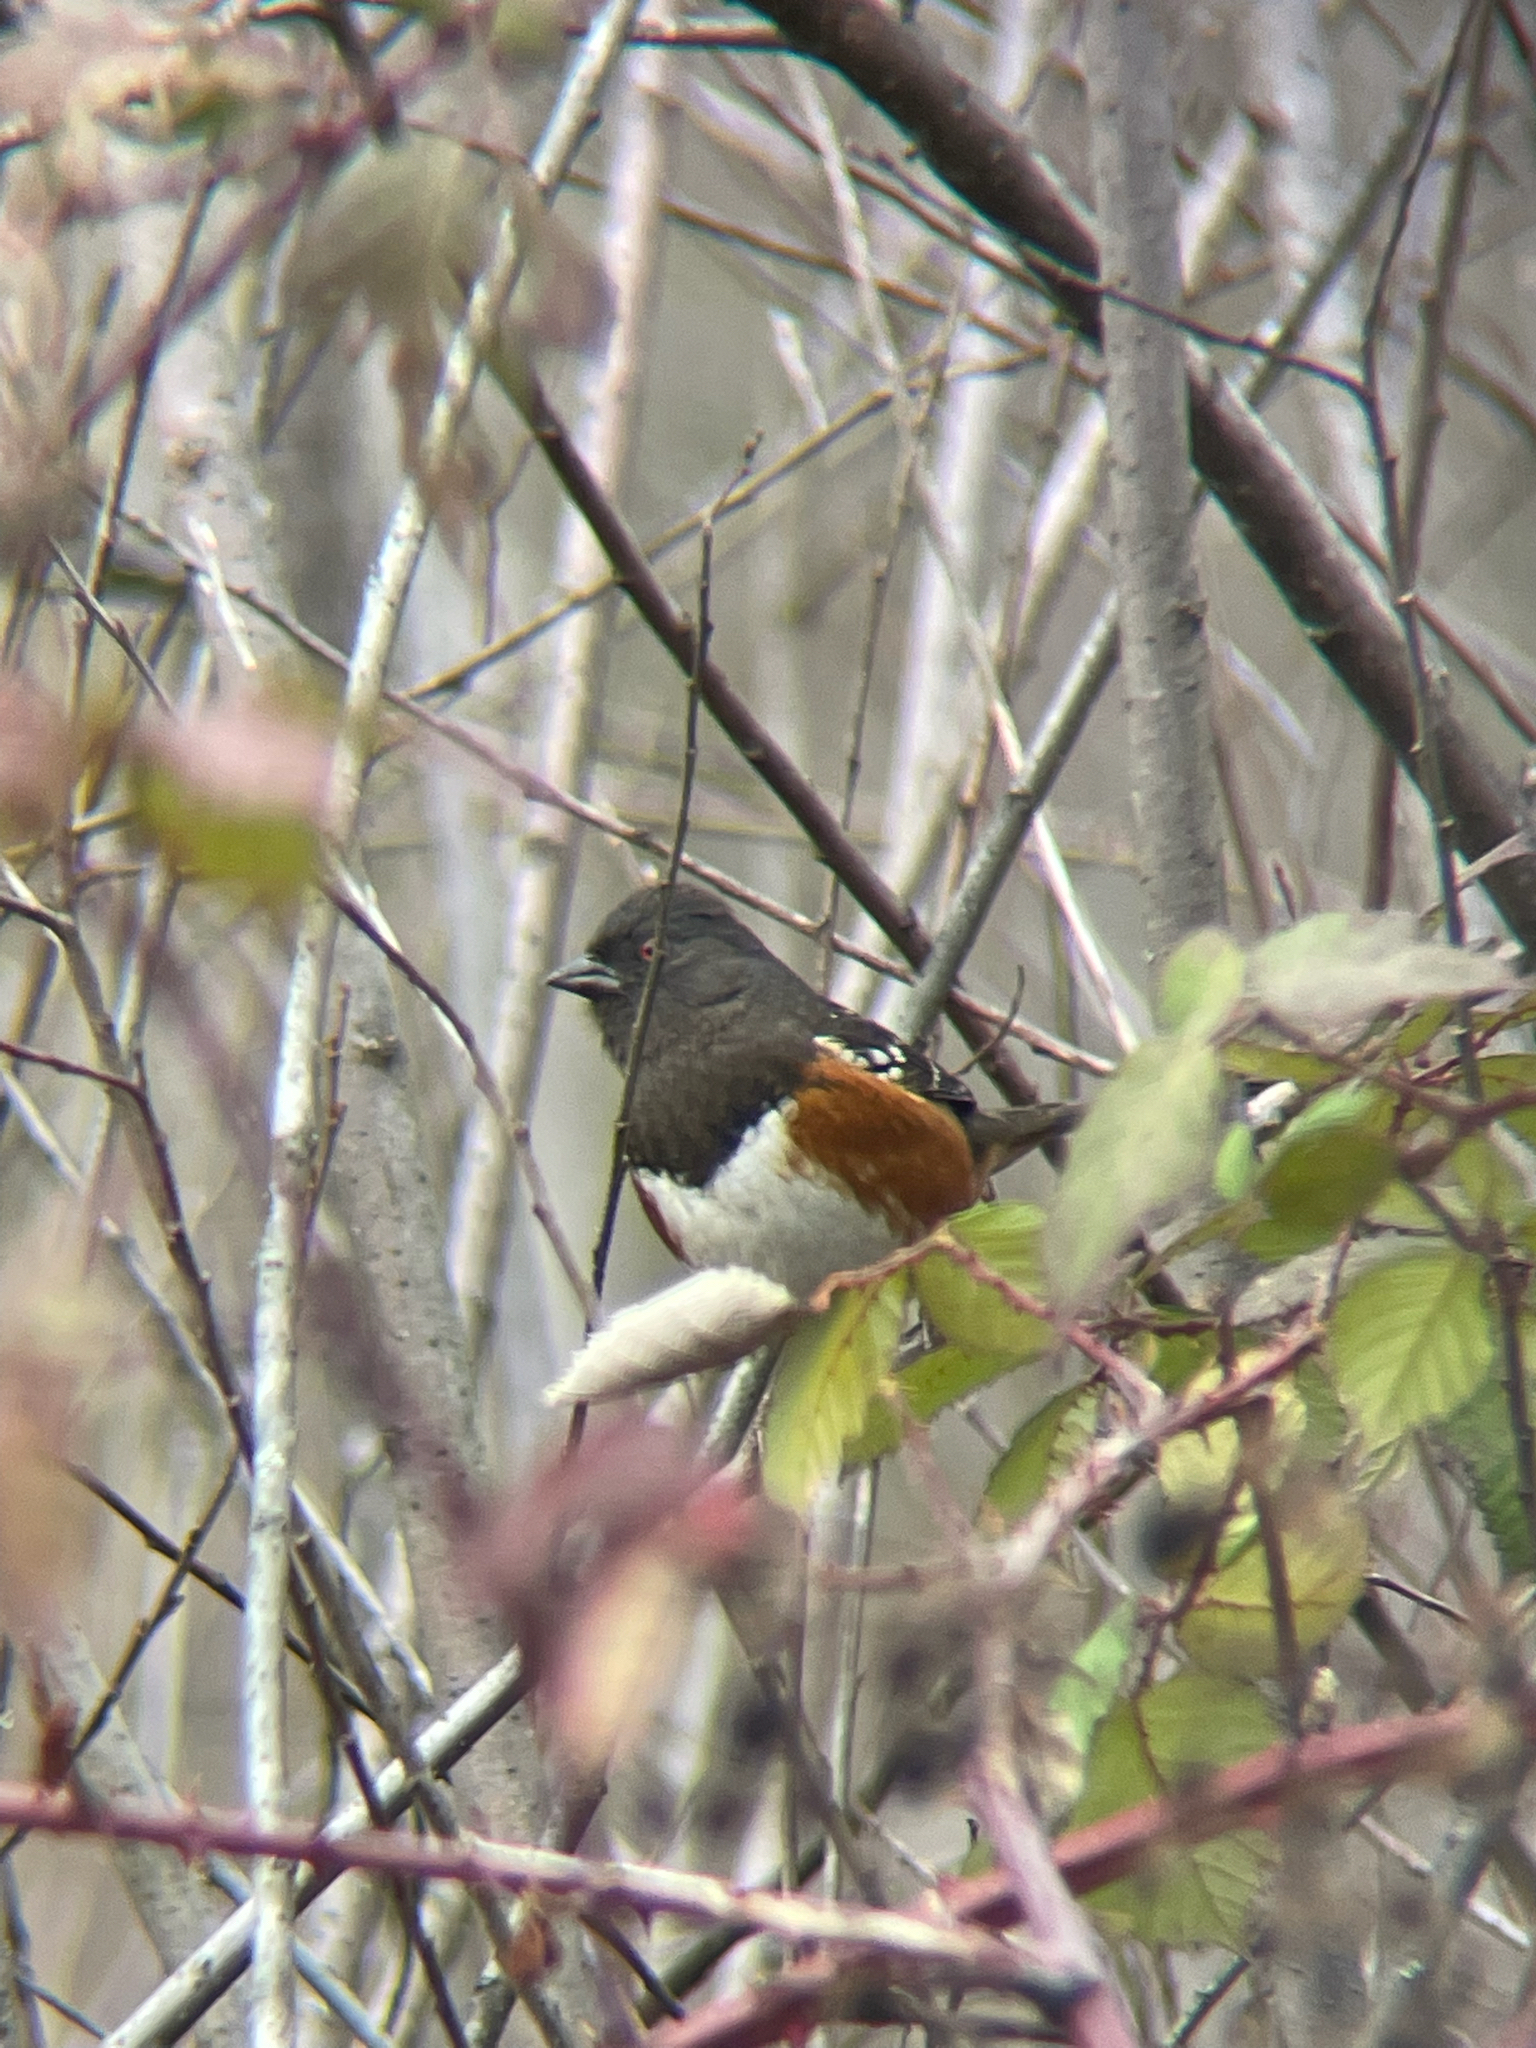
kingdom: Animalia
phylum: Chordata
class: Aves
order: Passeriformes
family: Passerellidae
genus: Pipilo
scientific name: Pipilo maculatus
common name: Spotted towhee
